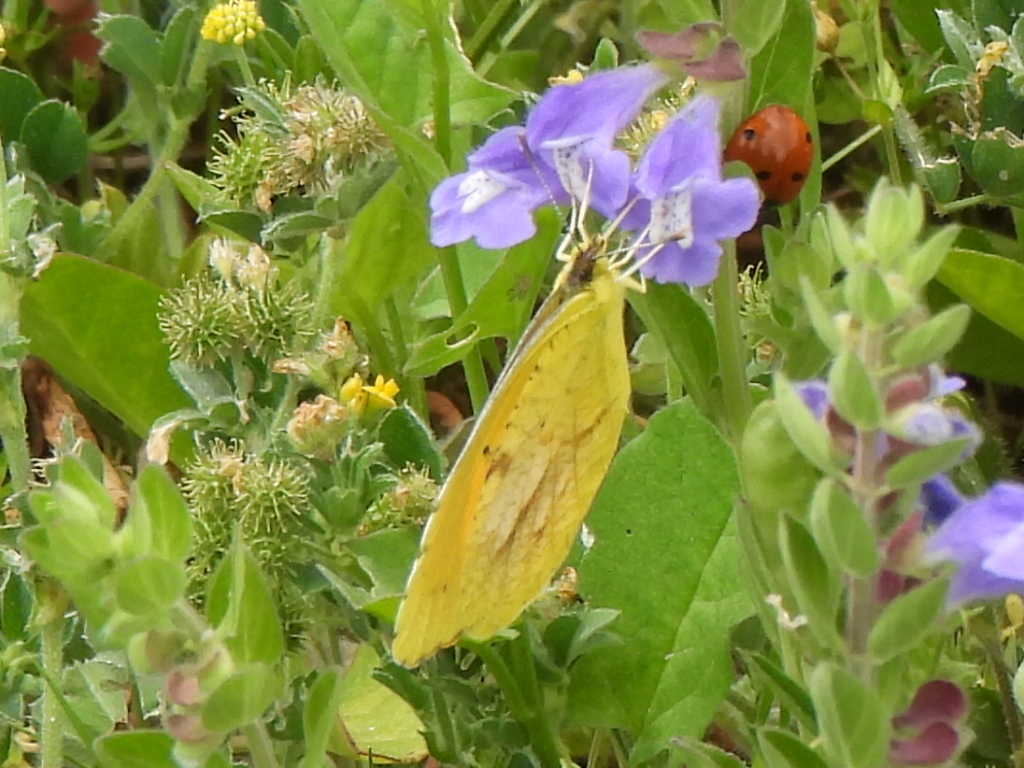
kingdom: Animalia
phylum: Arthropoda
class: Insecta
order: Lepidoptera
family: Pieridae
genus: Abaeis
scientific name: Abaeis nicippe
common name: Sleepy orange
